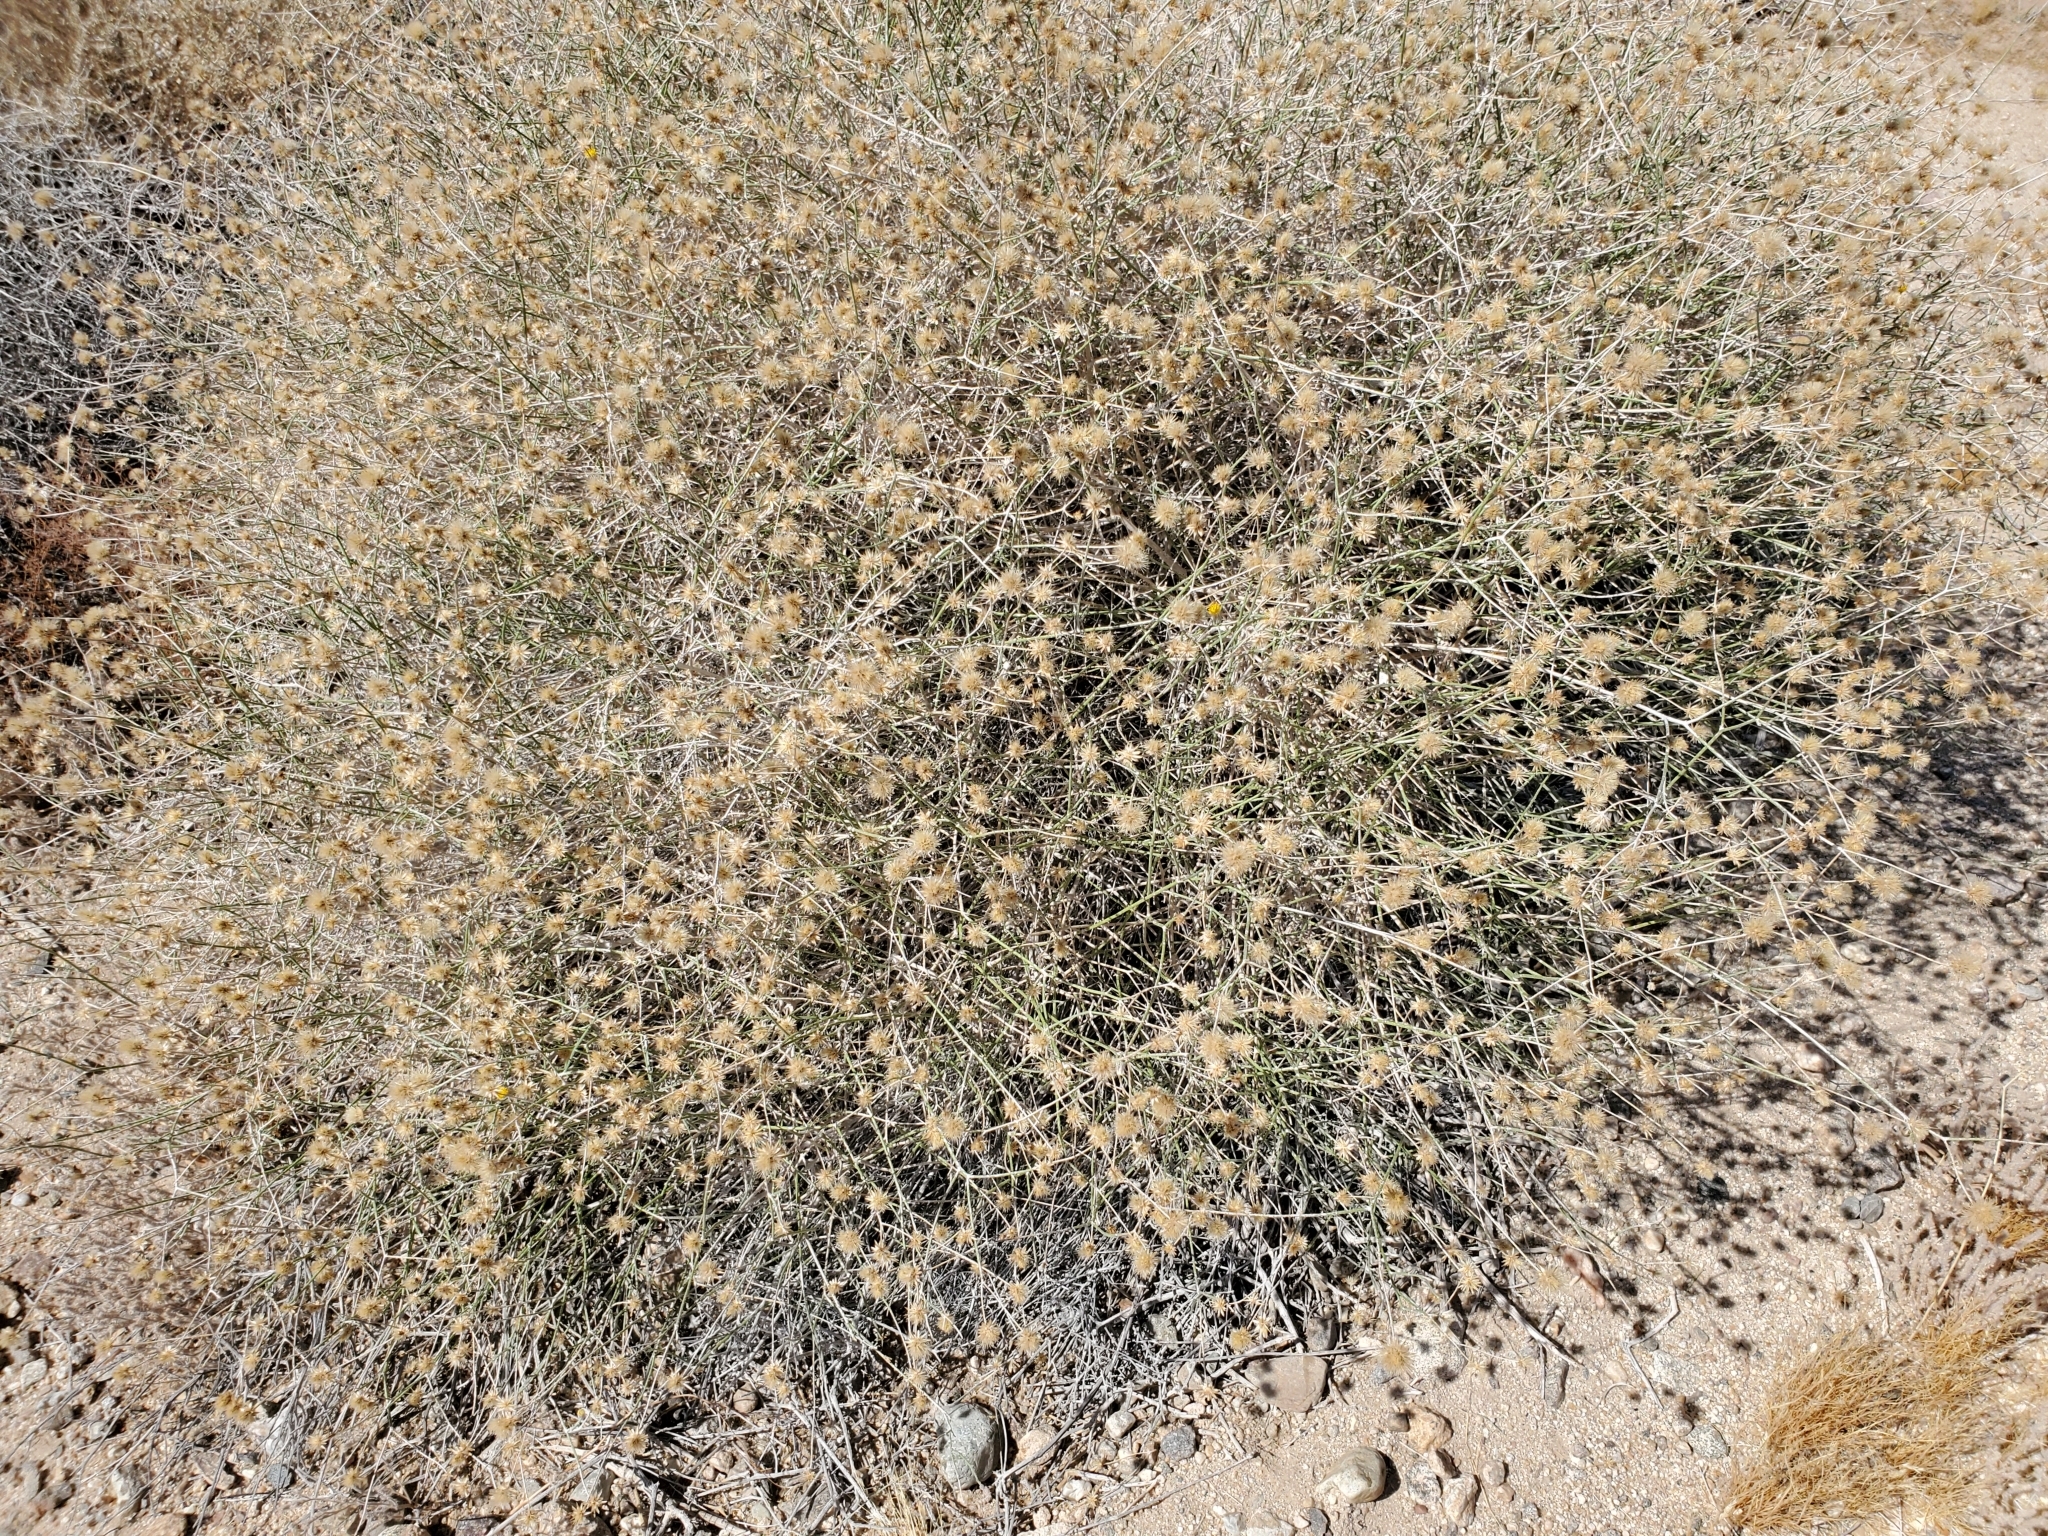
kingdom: Plantae
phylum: Tracheophyta
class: Magnoliopsida
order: Asterales
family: Asteraceae
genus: Bebbia
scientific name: Bebbia juncea
